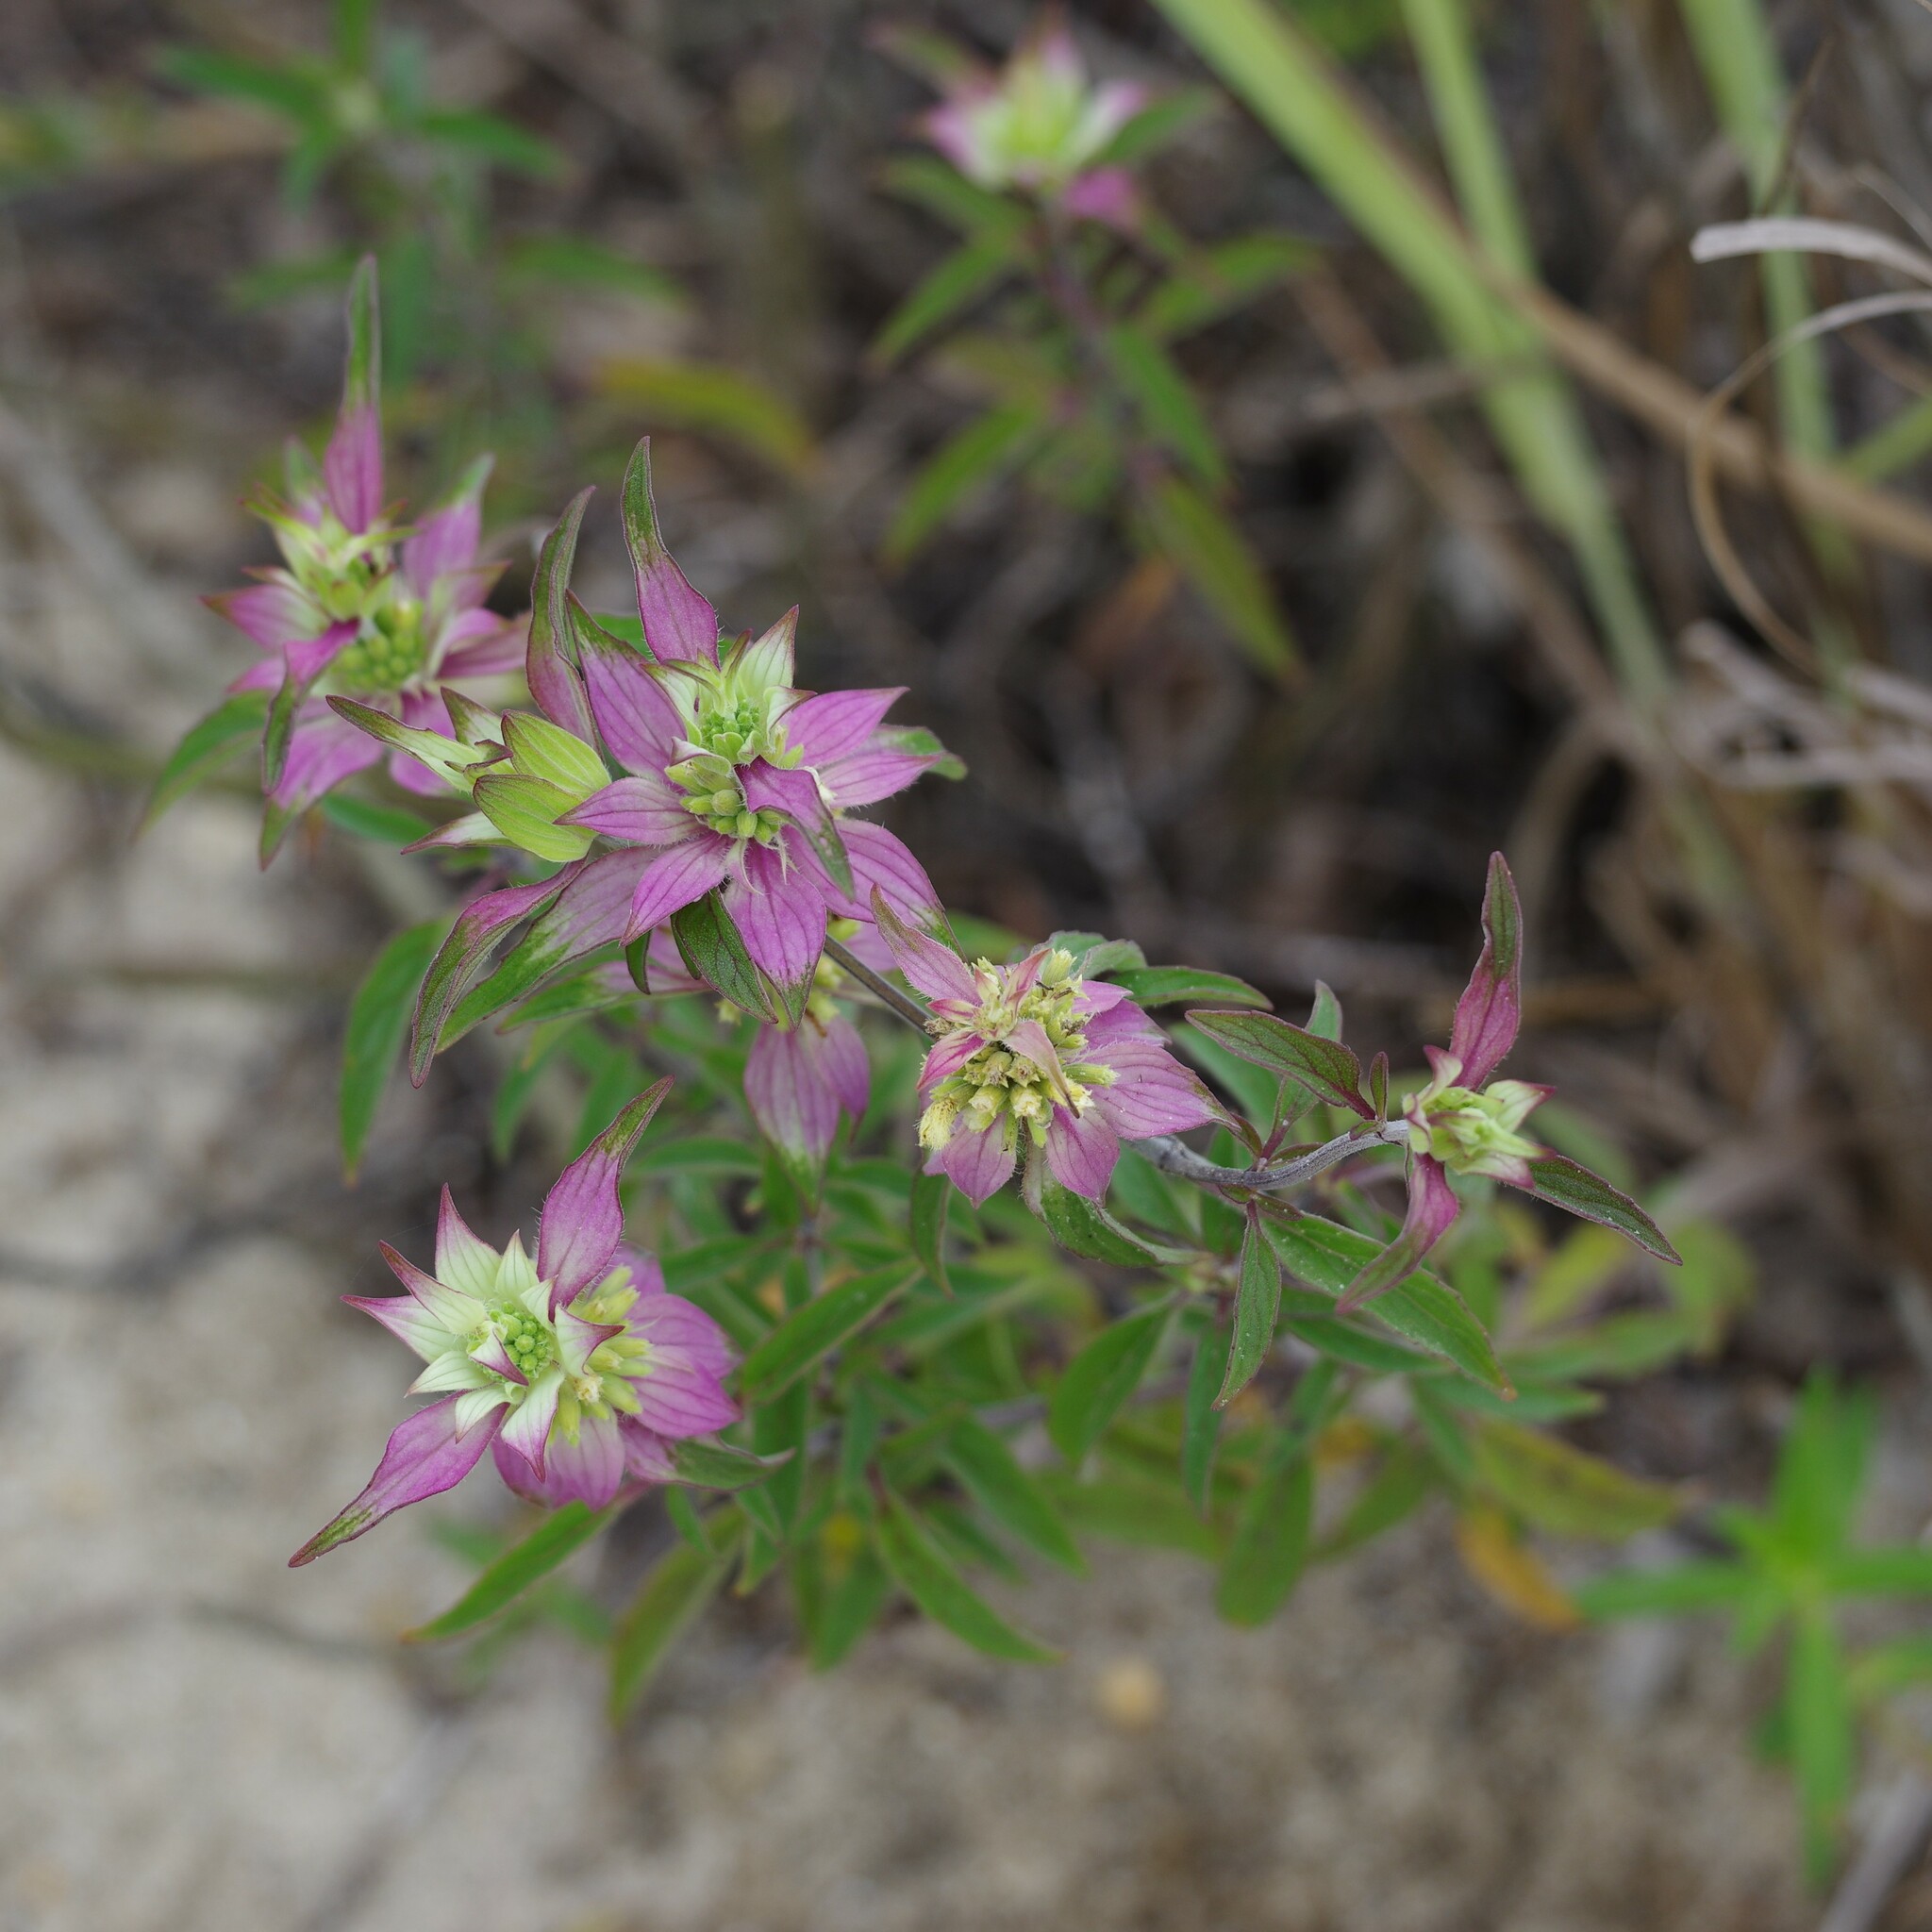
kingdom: Plantae
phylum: Tracheophyta
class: Magnoliopsida
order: Lamiales
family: Lamiaceae
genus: Monarda
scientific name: Monarda punctata
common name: Dotted monarda
